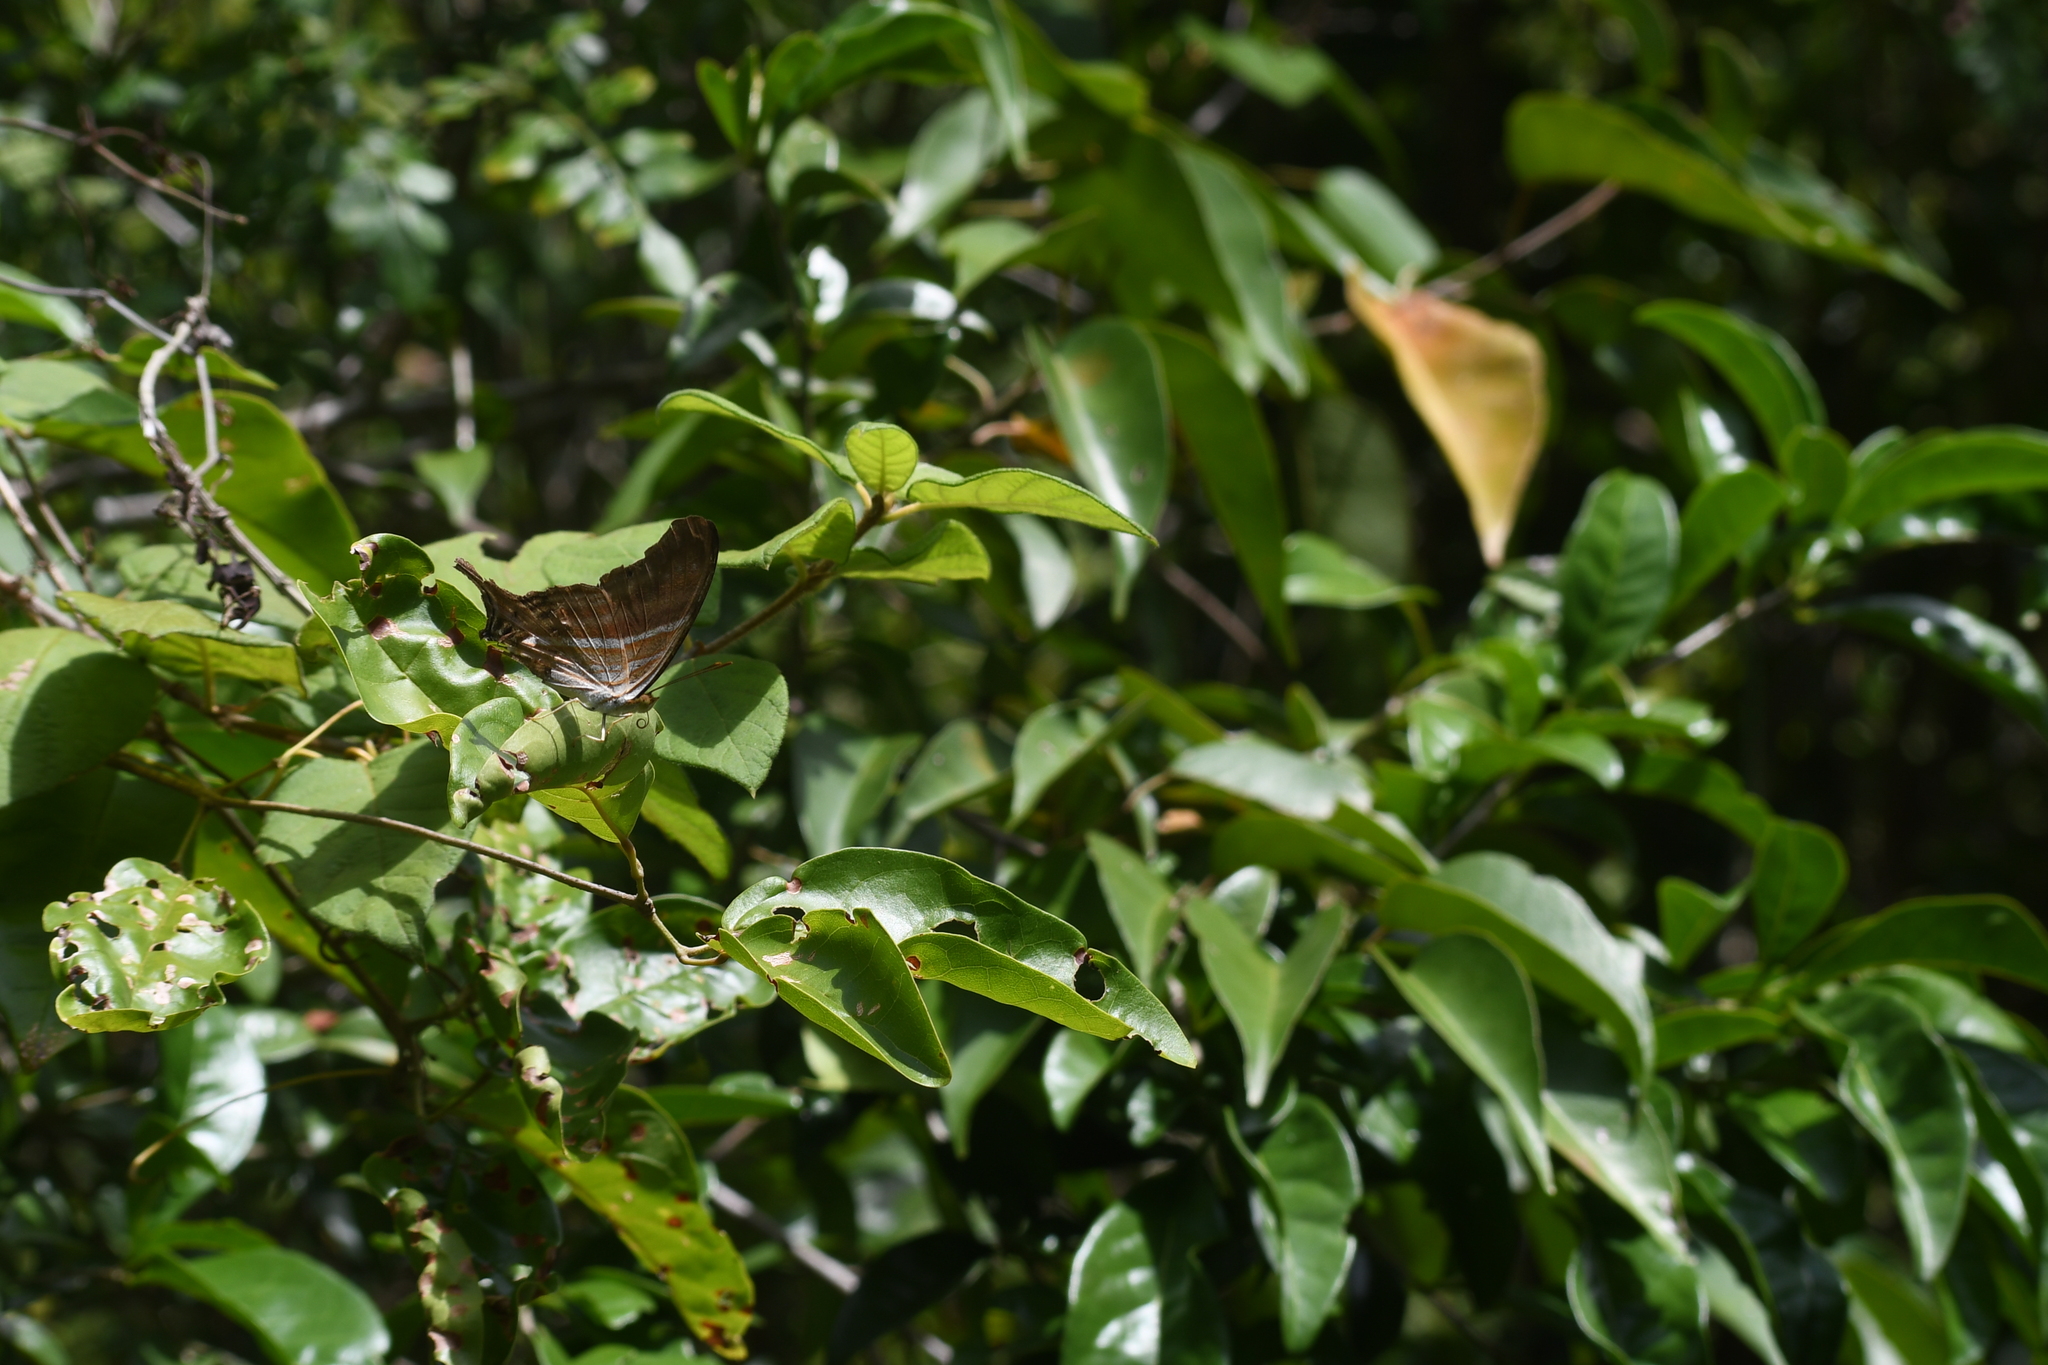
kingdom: Animalia
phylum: Arthropoda
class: Insecta
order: Lepidoptera
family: Nymphalidae
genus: Marpesia
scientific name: Marpesia chiron
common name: Many-banded daggerwing
